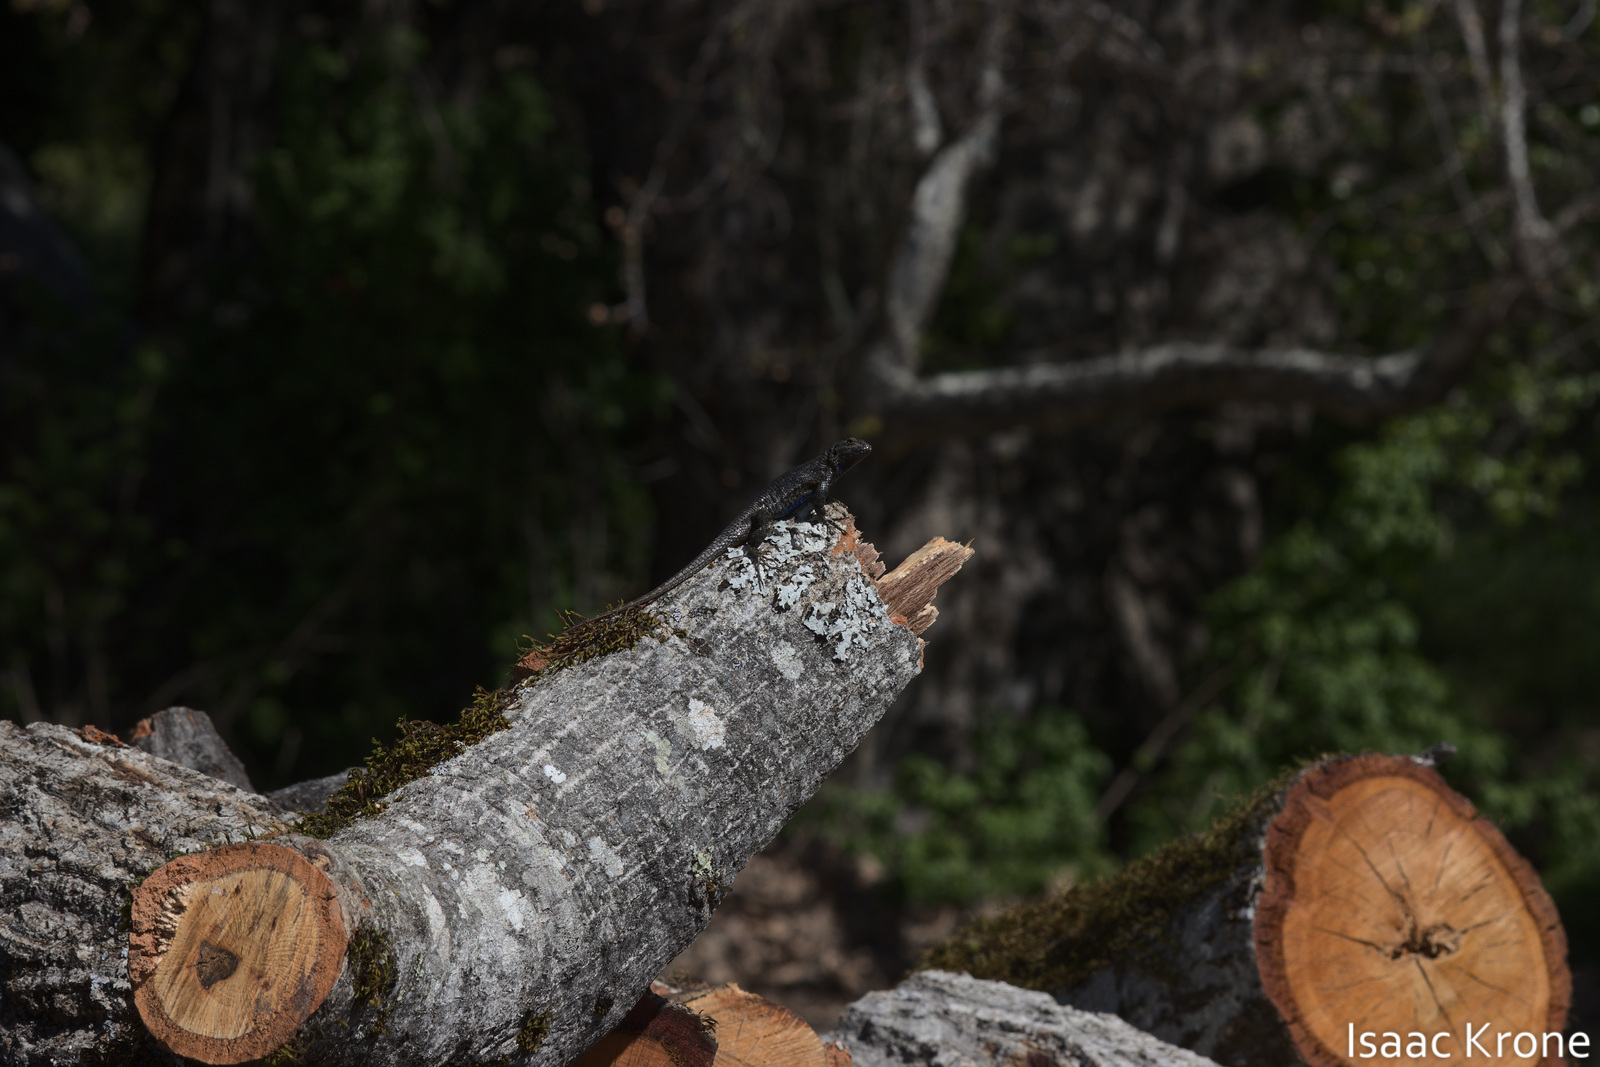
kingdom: Animalia
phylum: Chordata
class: Squamata
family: Phrynosomatidae
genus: Sceloporus
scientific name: Sceloporus occidentalis
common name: Western fence lizard
